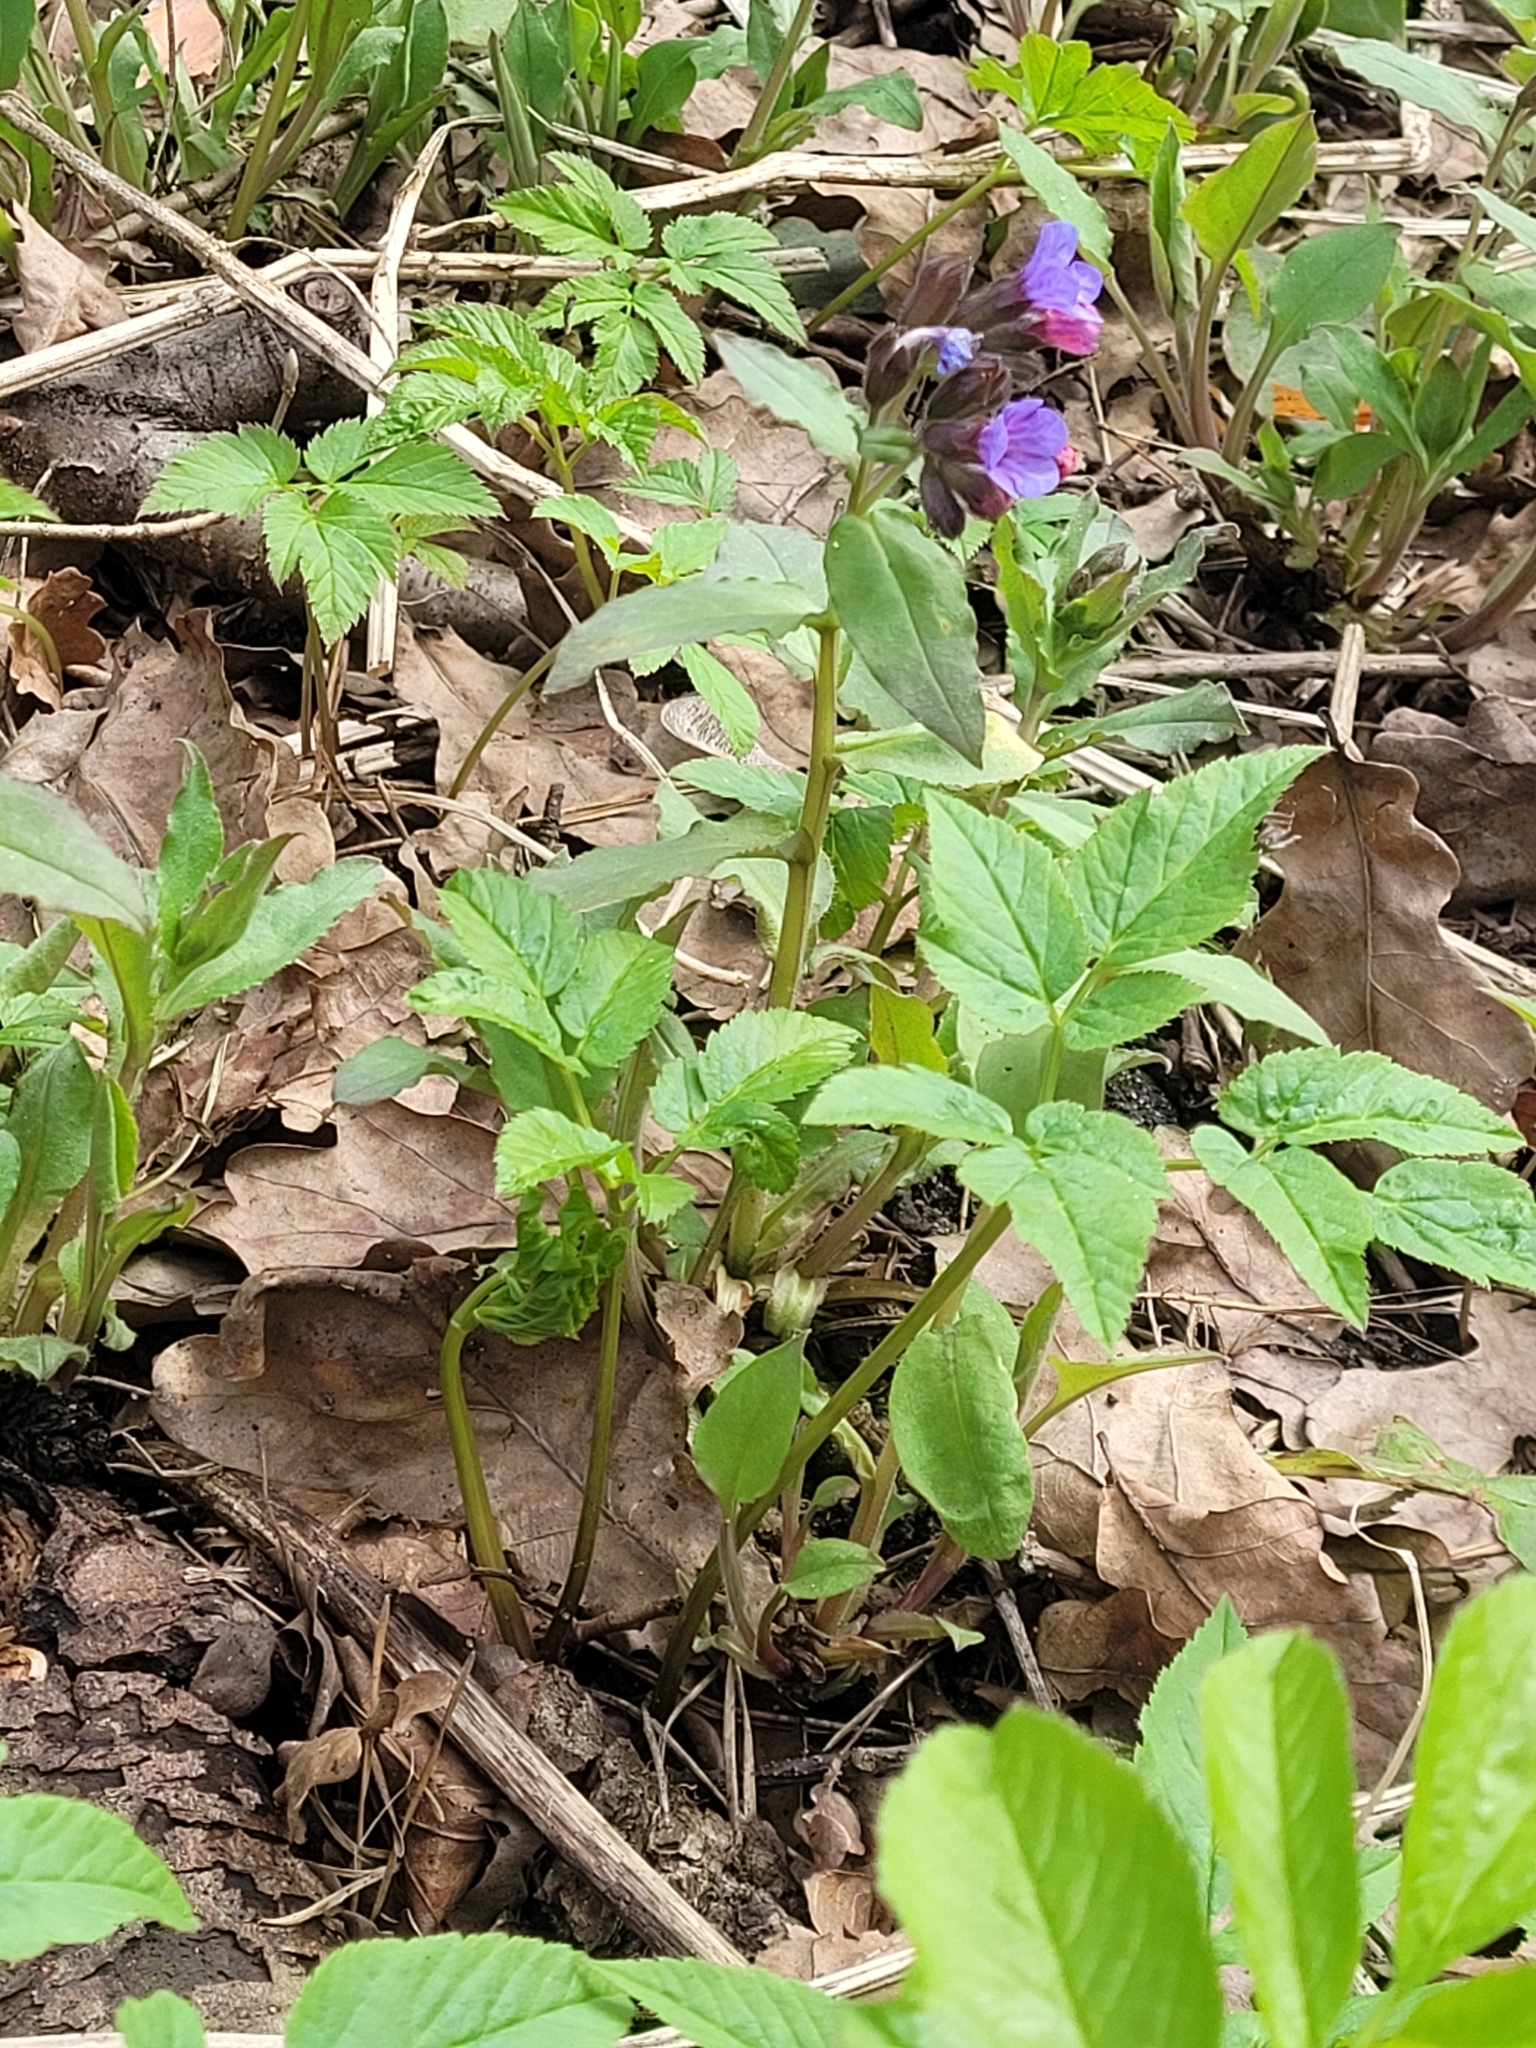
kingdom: Plantae
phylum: Tracheophyta
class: Magnoliopsida
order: Boraginales
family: Boraginaceae
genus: Pulmonaria
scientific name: Pulmonaria obscura
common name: Suffolk lungwort
